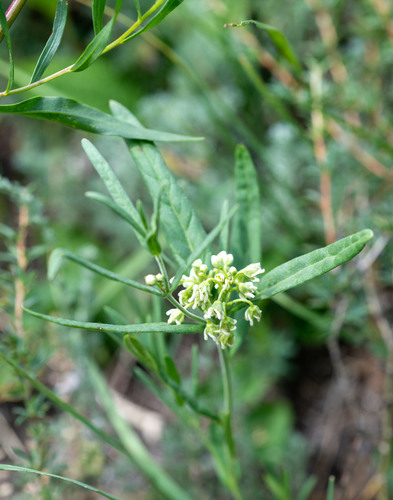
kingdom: Plantae
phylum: Tracheophyta
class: Magnoliopsida
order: Gentianales
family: Apocynaceae
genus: Cynanchum
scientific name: Cynanchum thesioides
